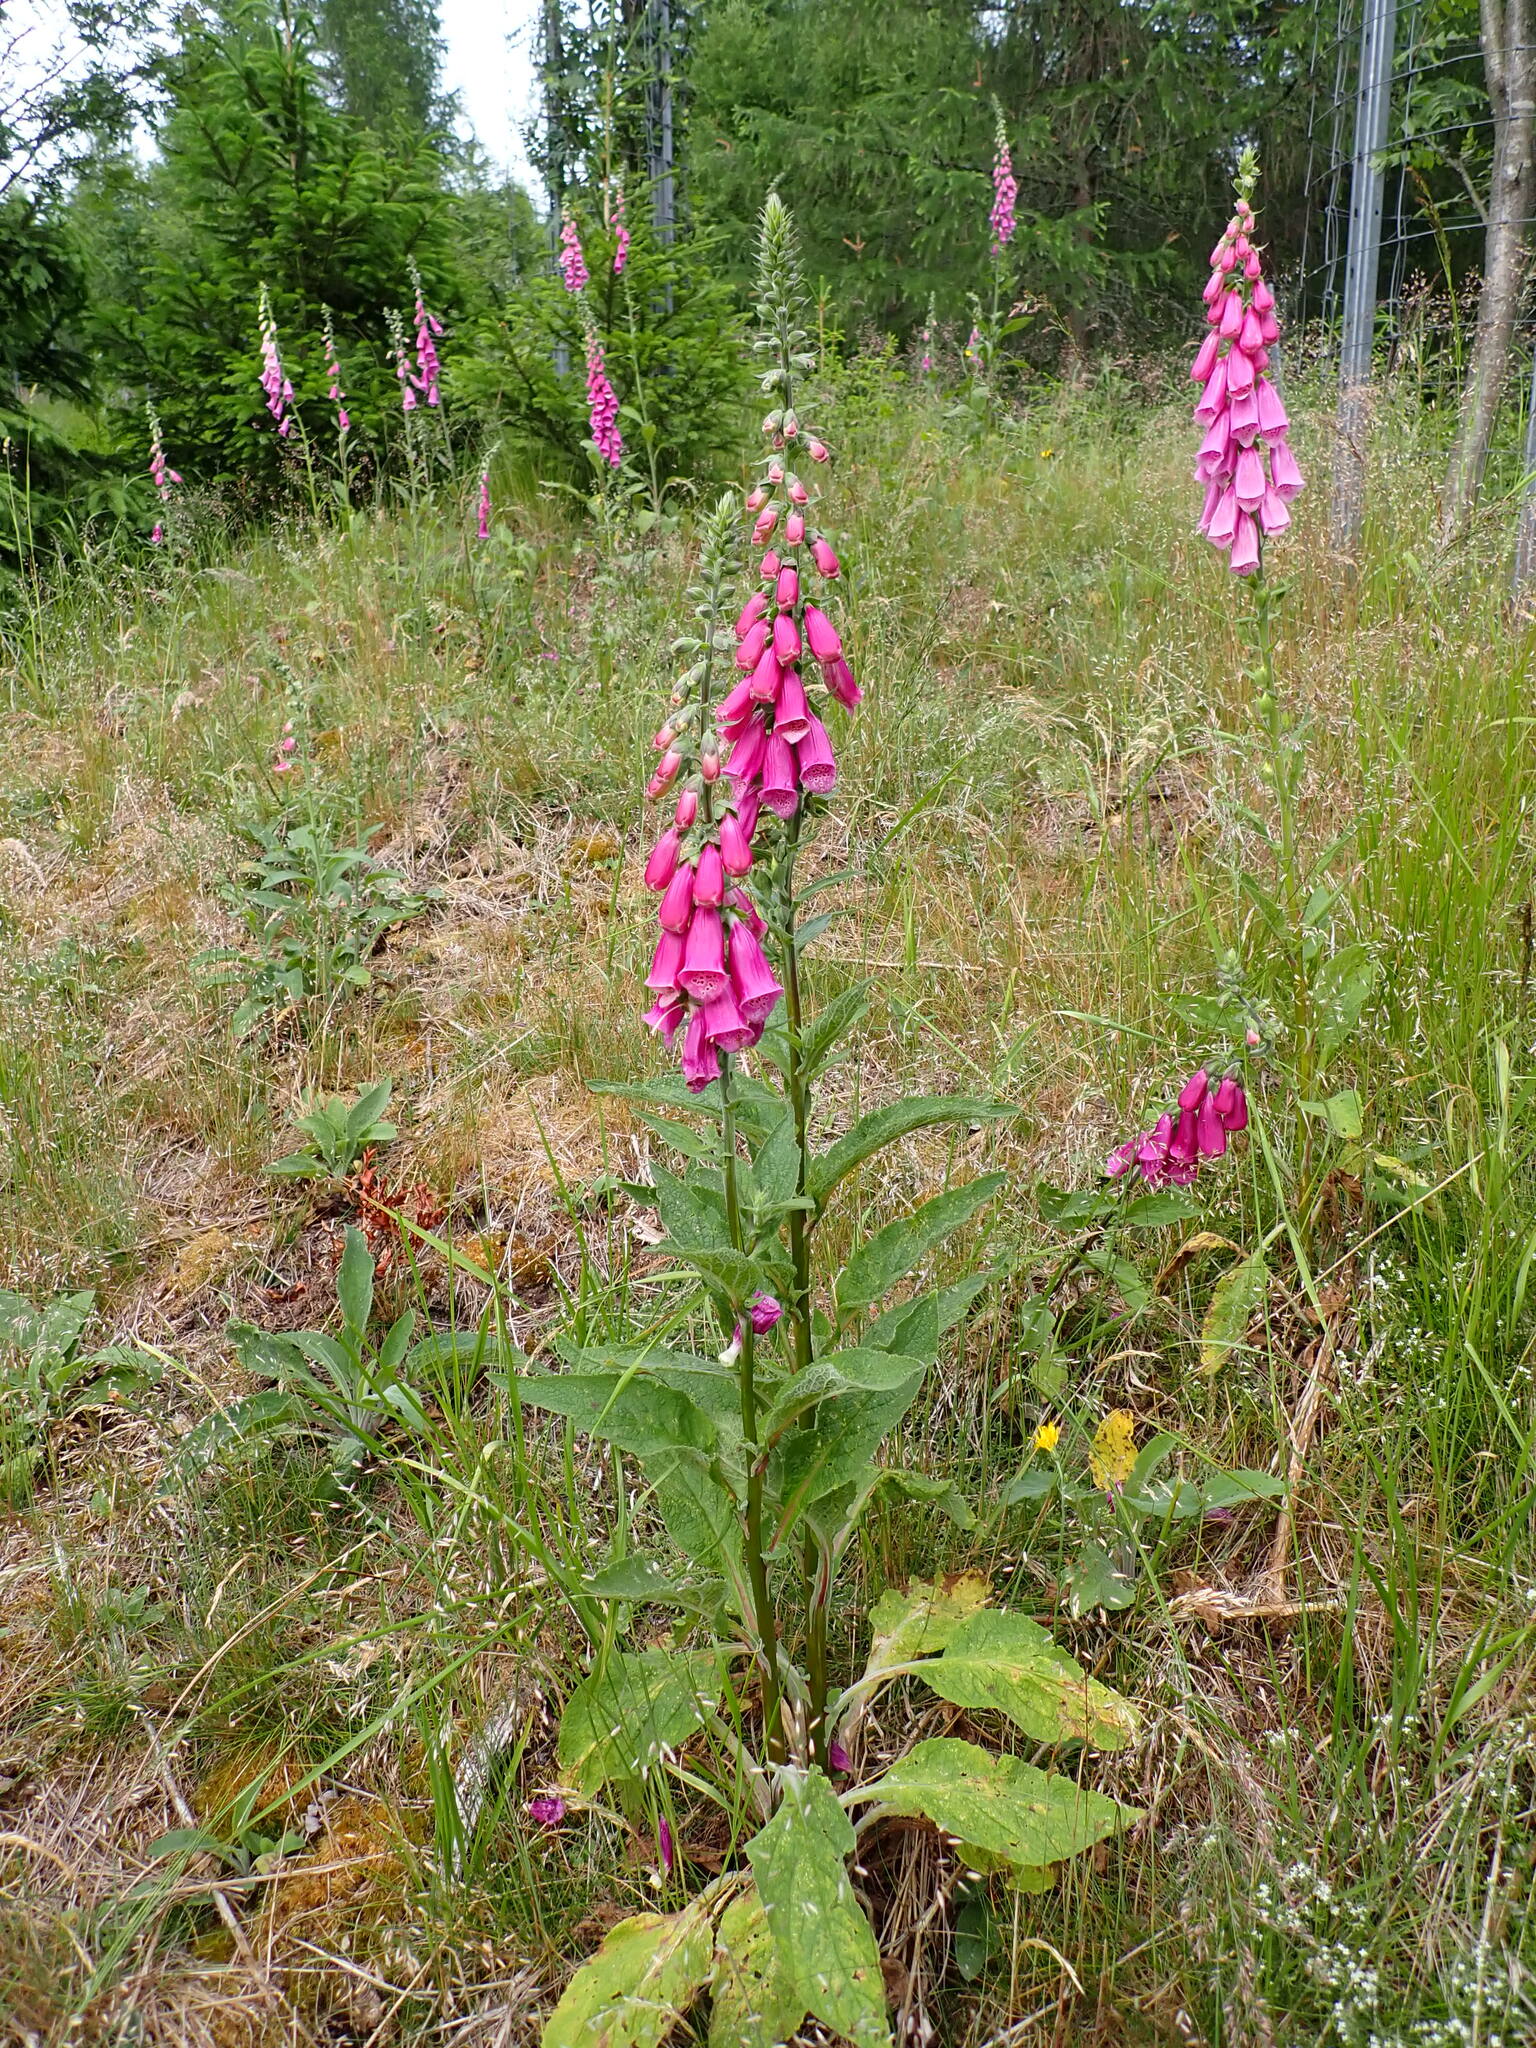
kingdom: Plantae
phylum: Tracheophyta
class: Magnoliopsida
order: Lamiales
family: Plantaginaceae
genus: Digitalis
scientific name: Digitalis purpurea
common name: Foxglove
